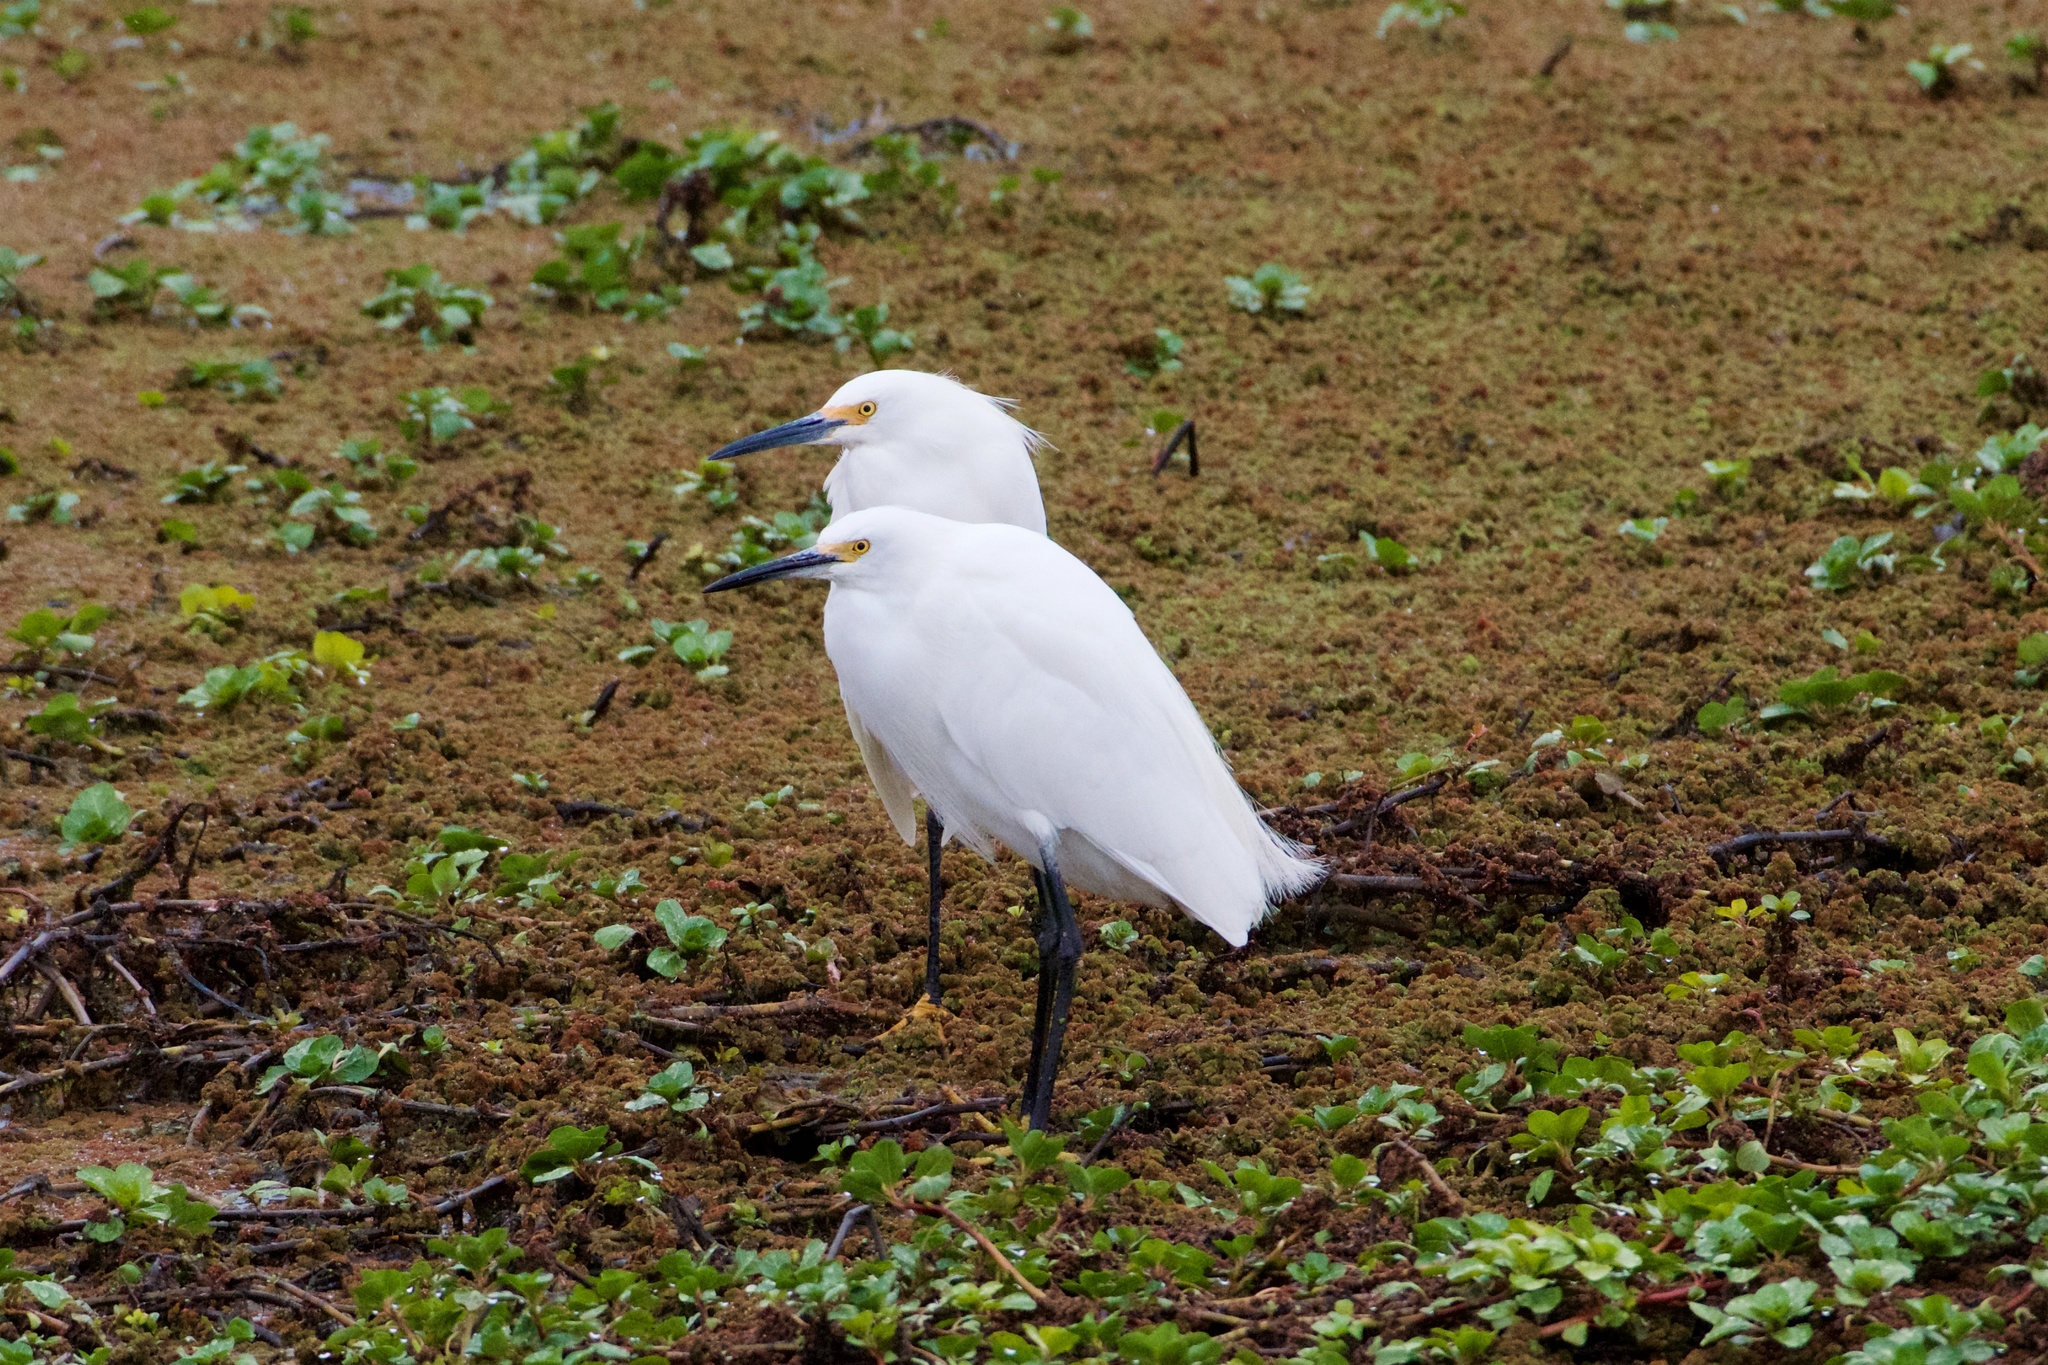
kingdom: Animalia
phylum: Chordata
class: Aves
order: Pelecaniformes
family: Ardeidae
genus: Egretta
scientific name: Egretta thula
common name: Snowy egret
